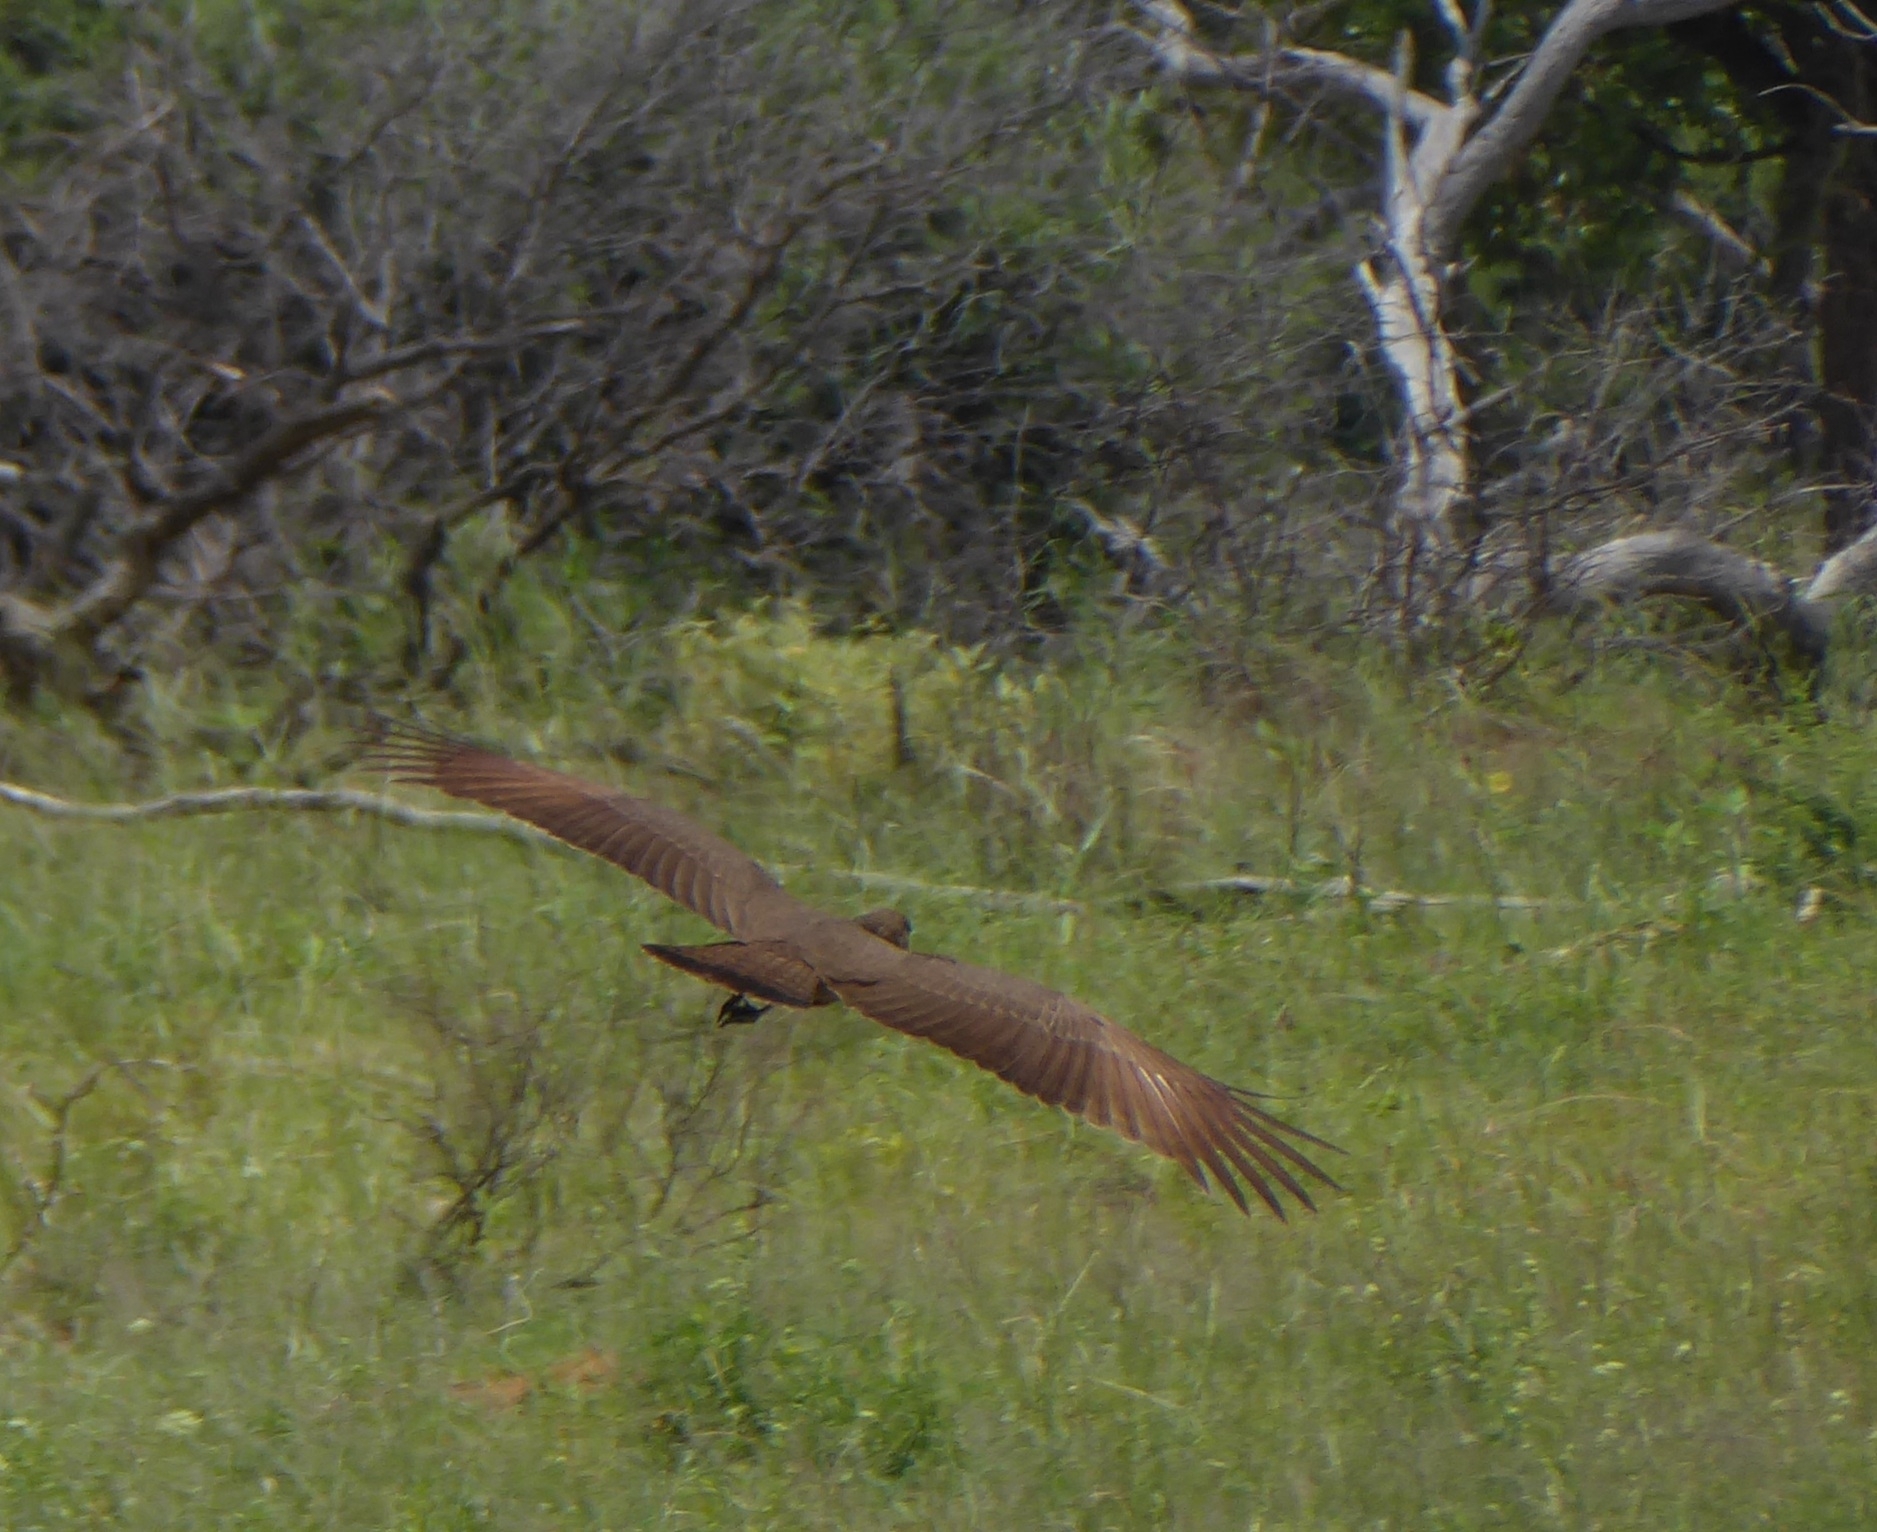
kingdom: Animalia
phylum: Chordata
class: Aves
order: Pelecaniformes
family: Scopidae
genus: Scopus
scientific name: Scopus umbretta
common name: Hamerkop
